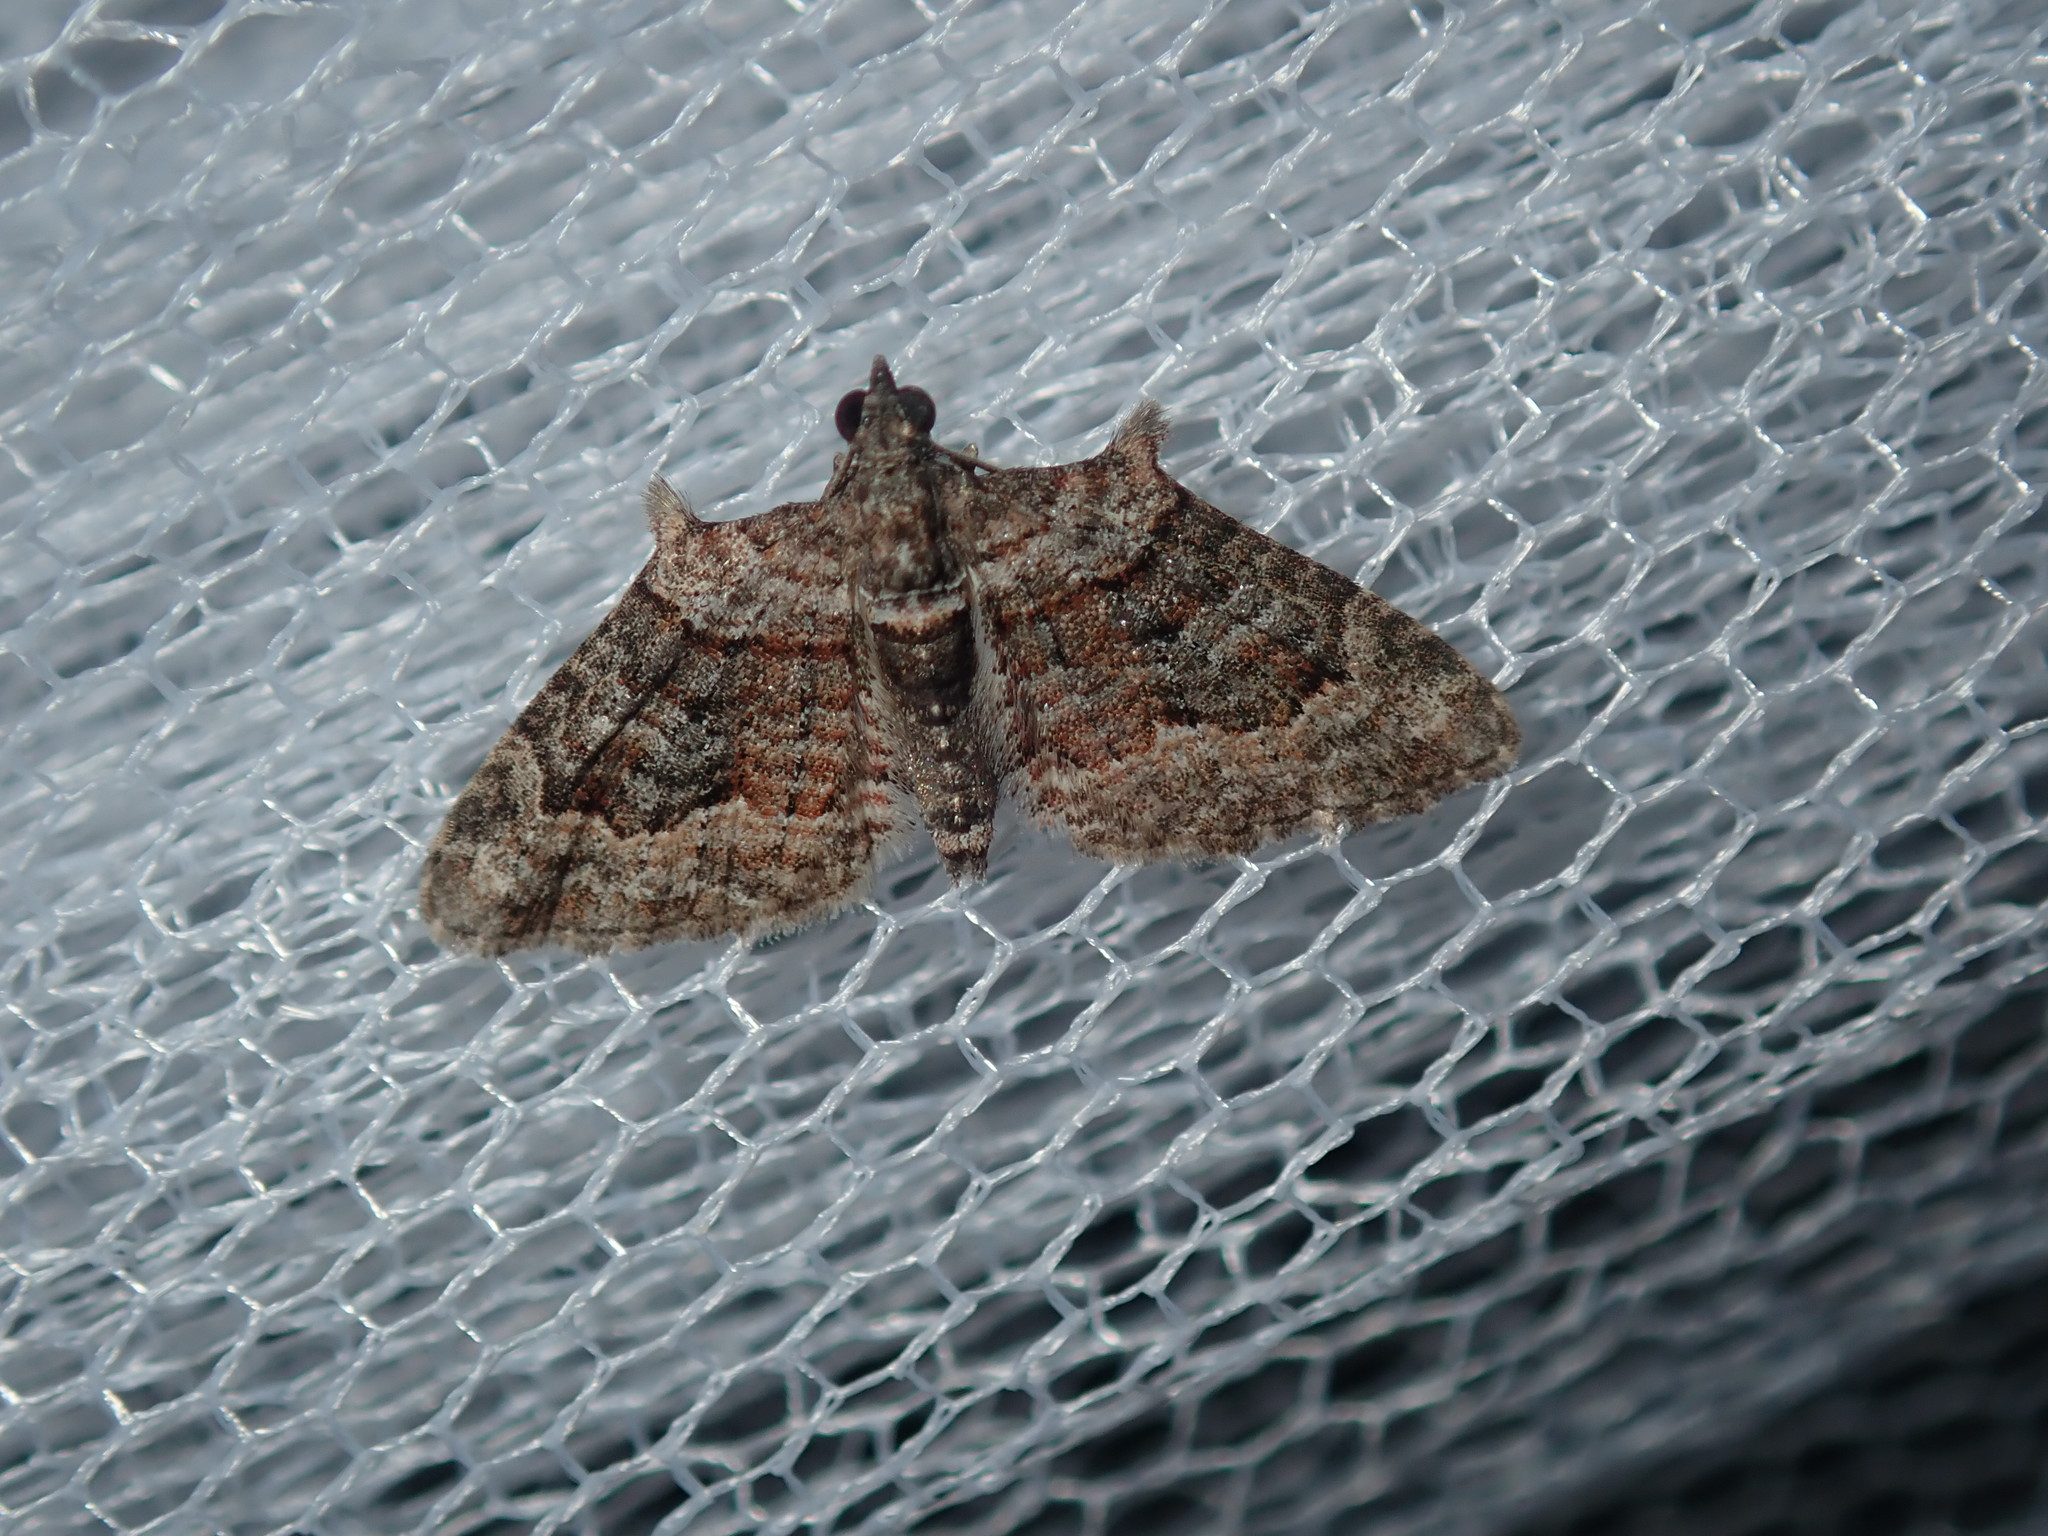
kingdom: Animalia
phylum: Arthropoda
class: Insecta
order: Lepidoptera
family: Geometridae
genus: Phrissogonus
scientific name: Phrissogonus laticostata
